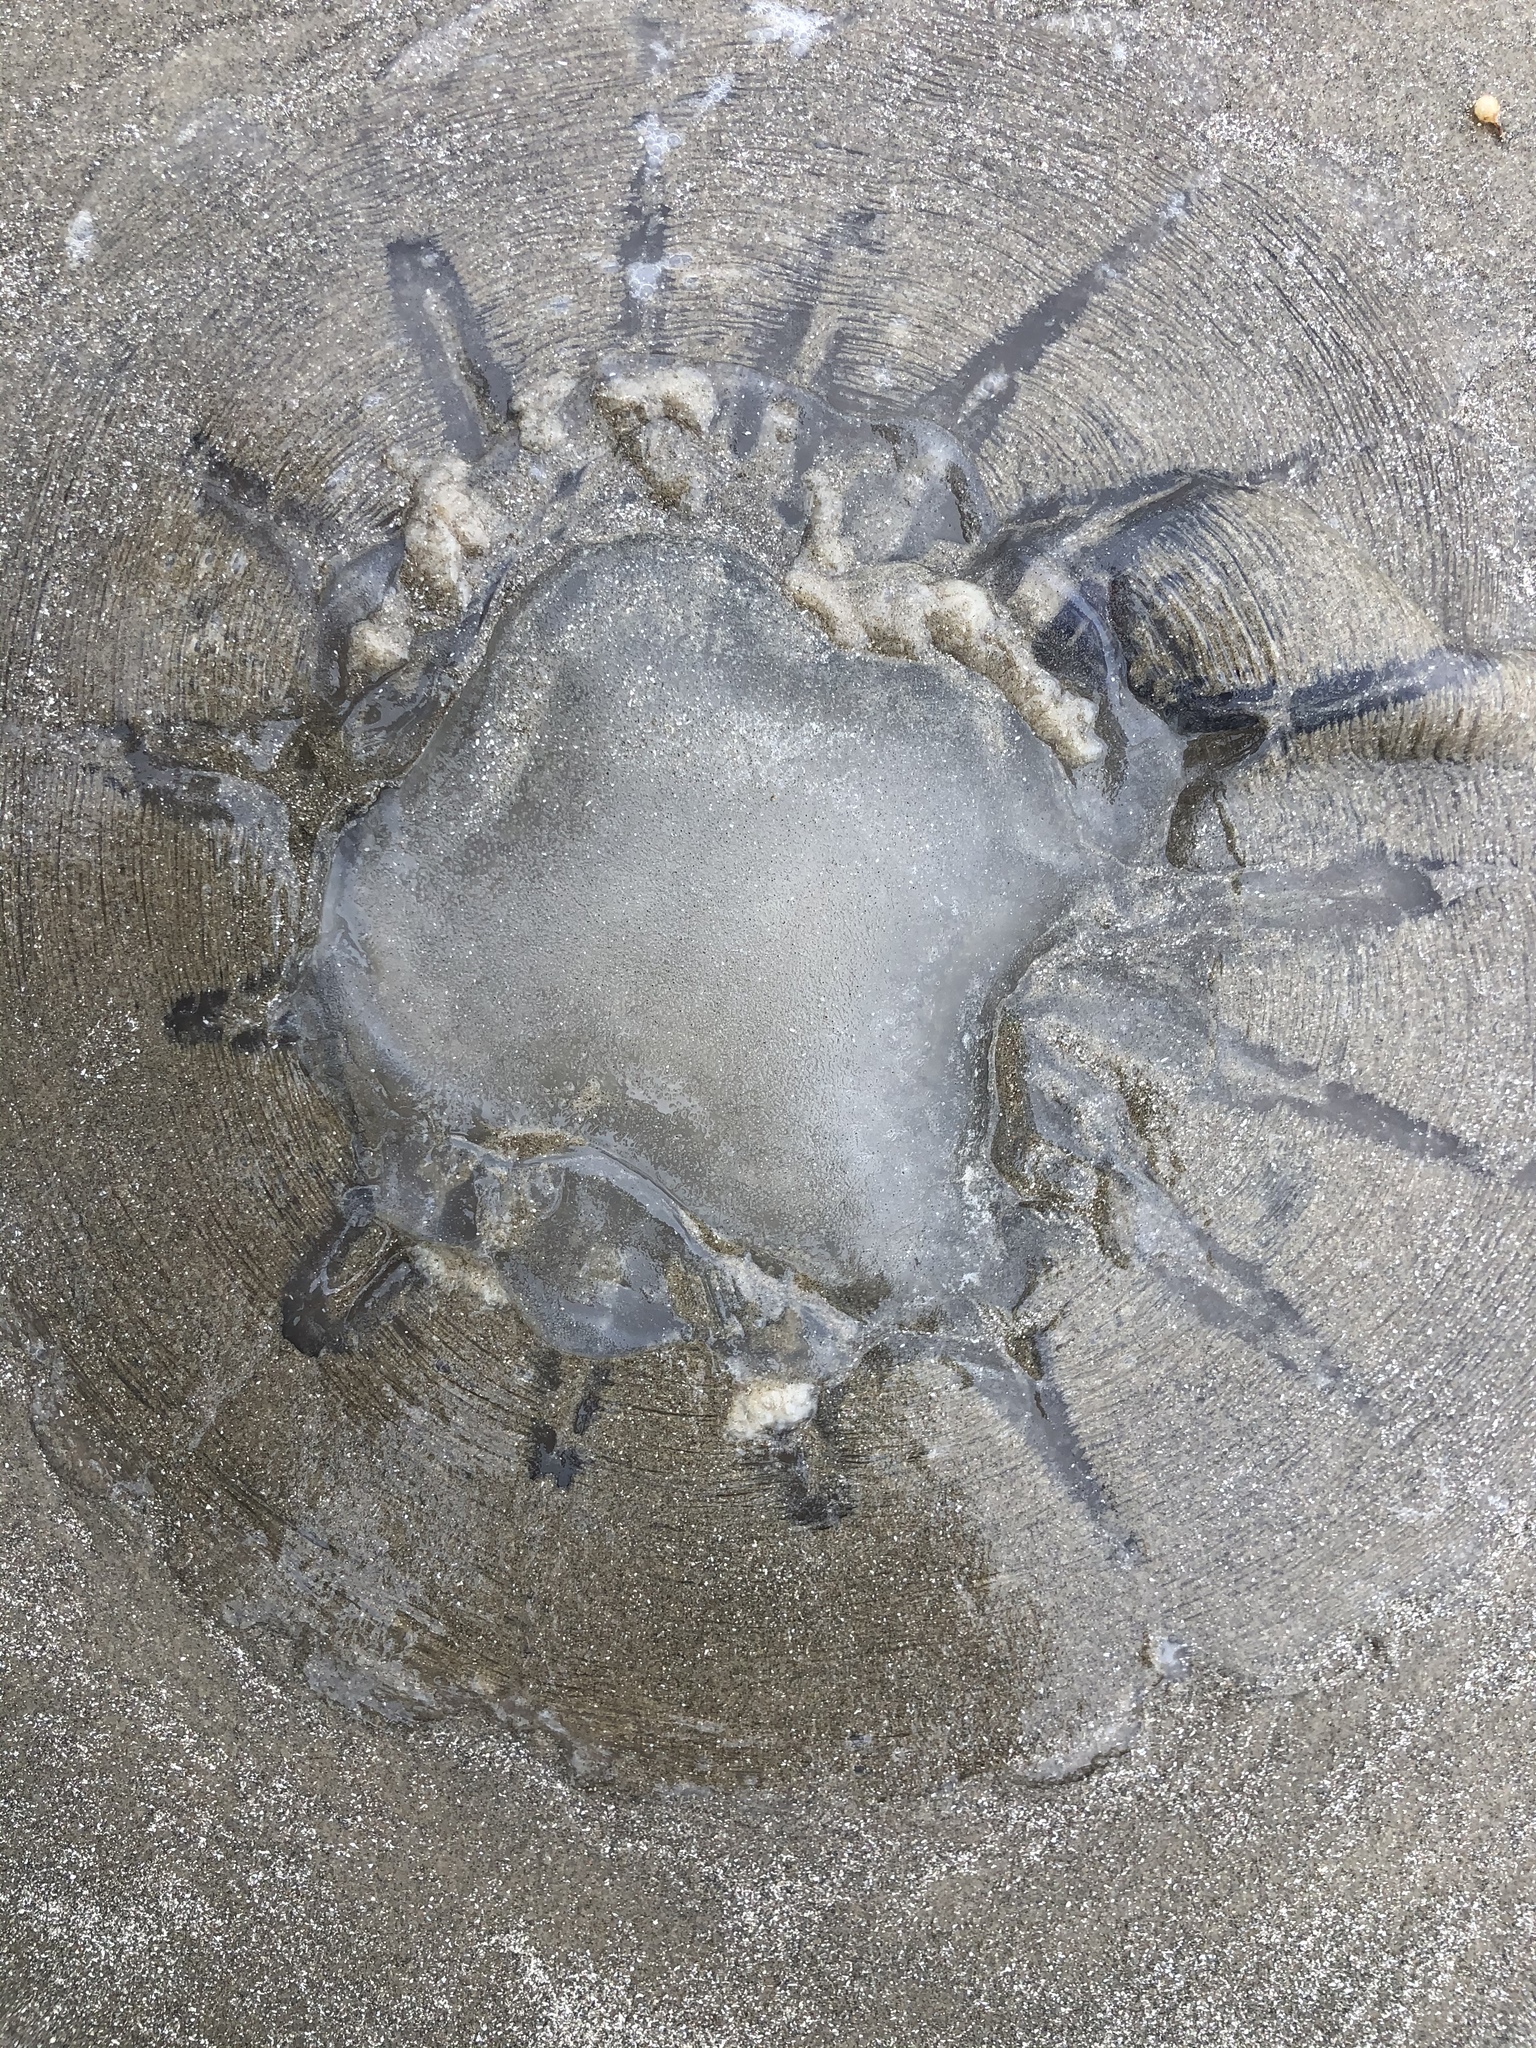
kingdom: Animalia
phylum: Cnidaria
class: Scyphozoa
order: Rhizostomeae
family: Rhizostomatidae
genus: Rhopilema
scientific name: Rhopilema verrilli
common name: Mushroom cap jellyfish
